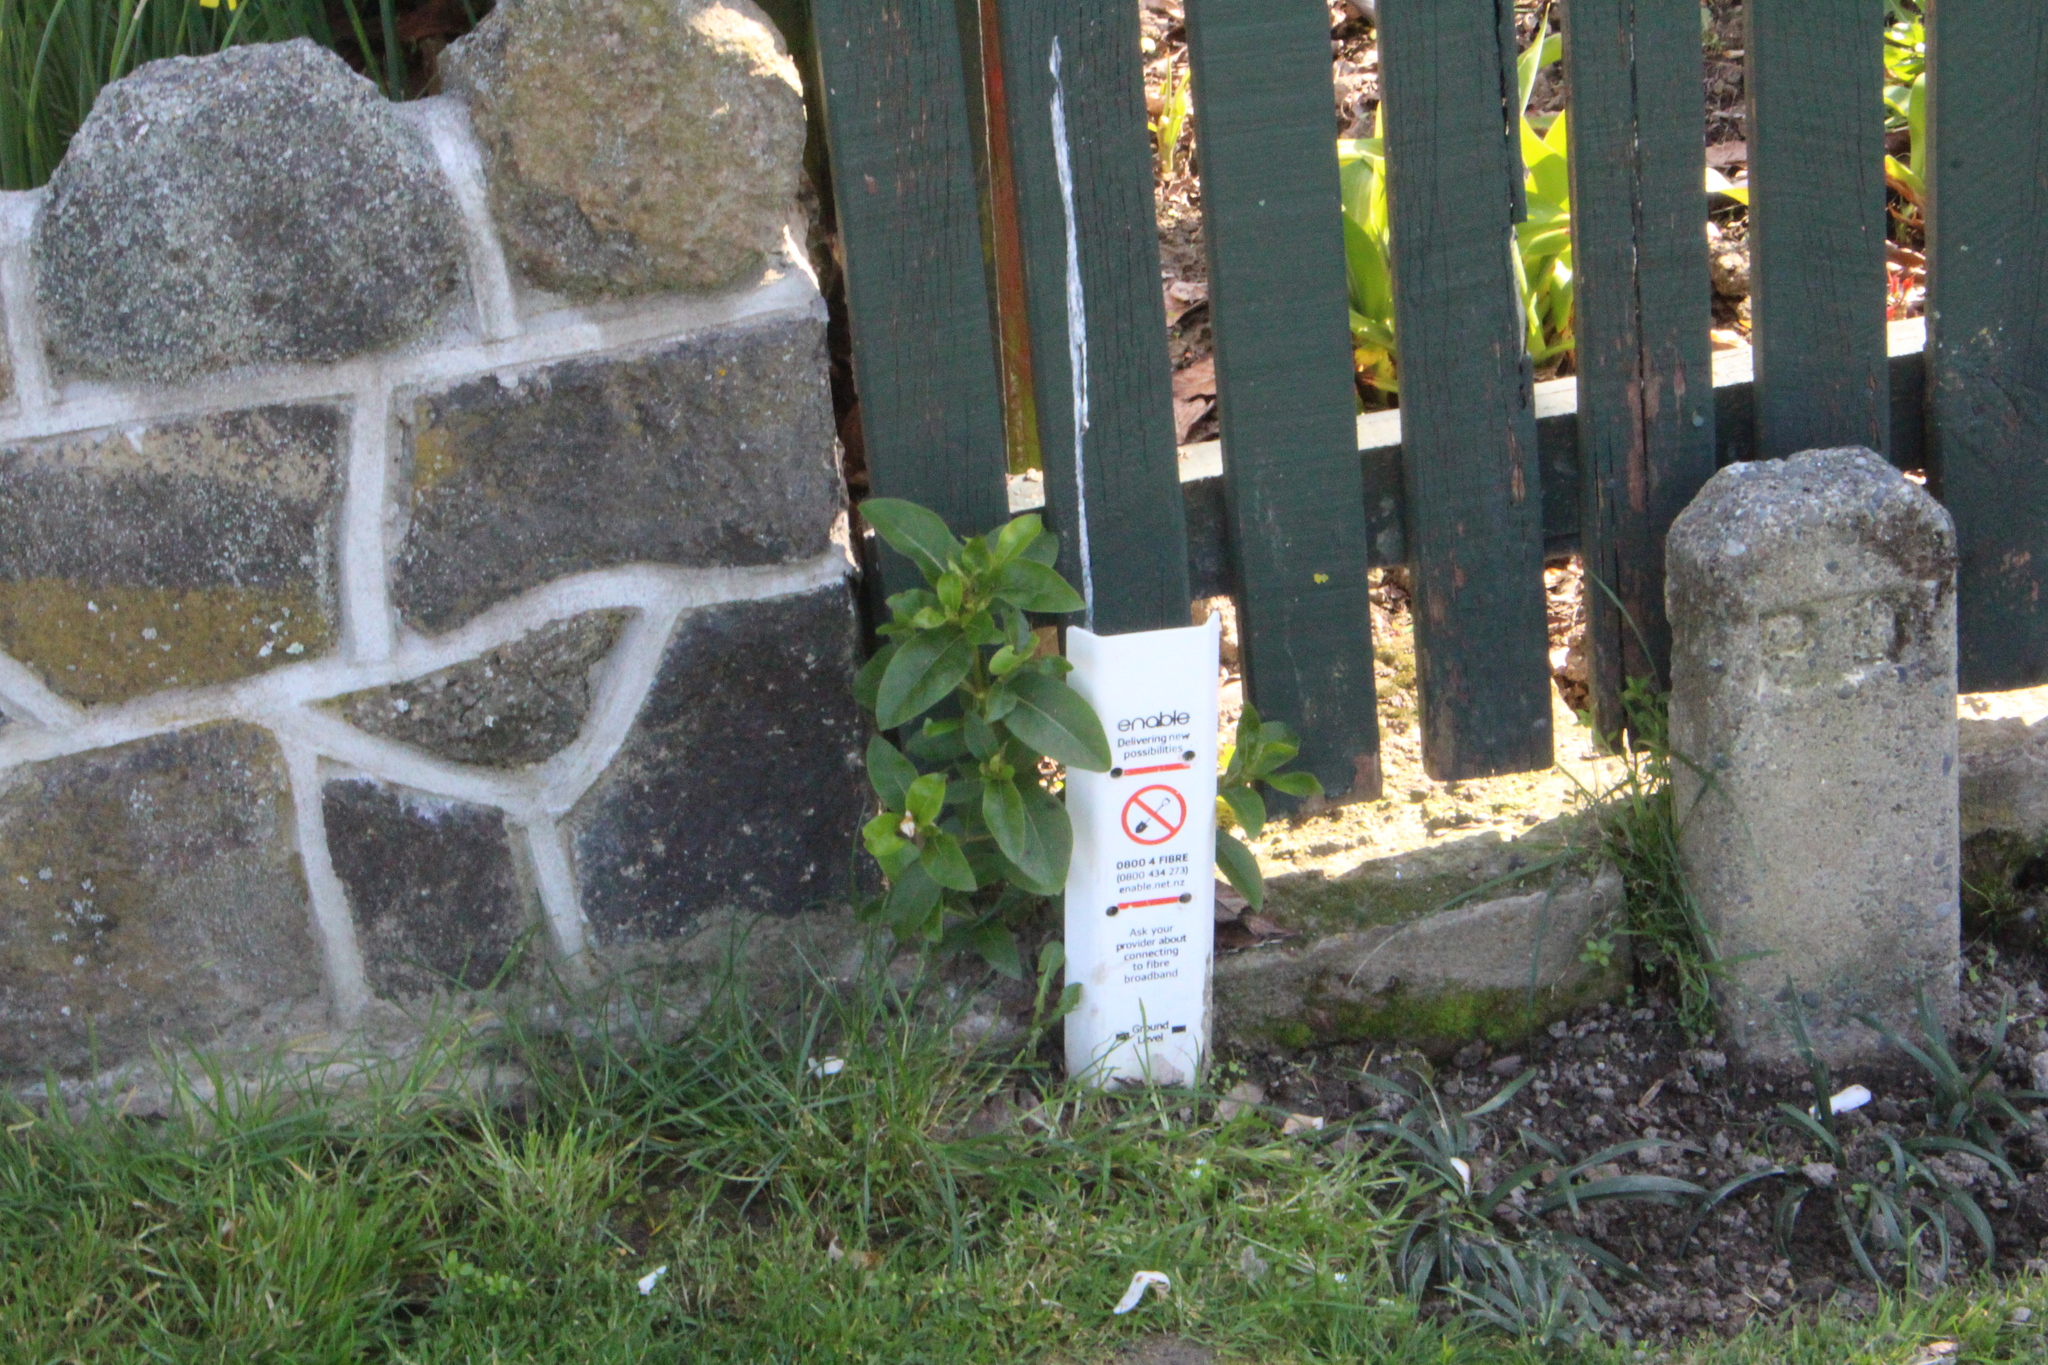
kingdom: Plantae
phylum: Tracheophyta
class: Magnoliopsida
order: Gentianales
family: Rubiaceae
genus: Coprosma
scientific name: Coprosma robusta
